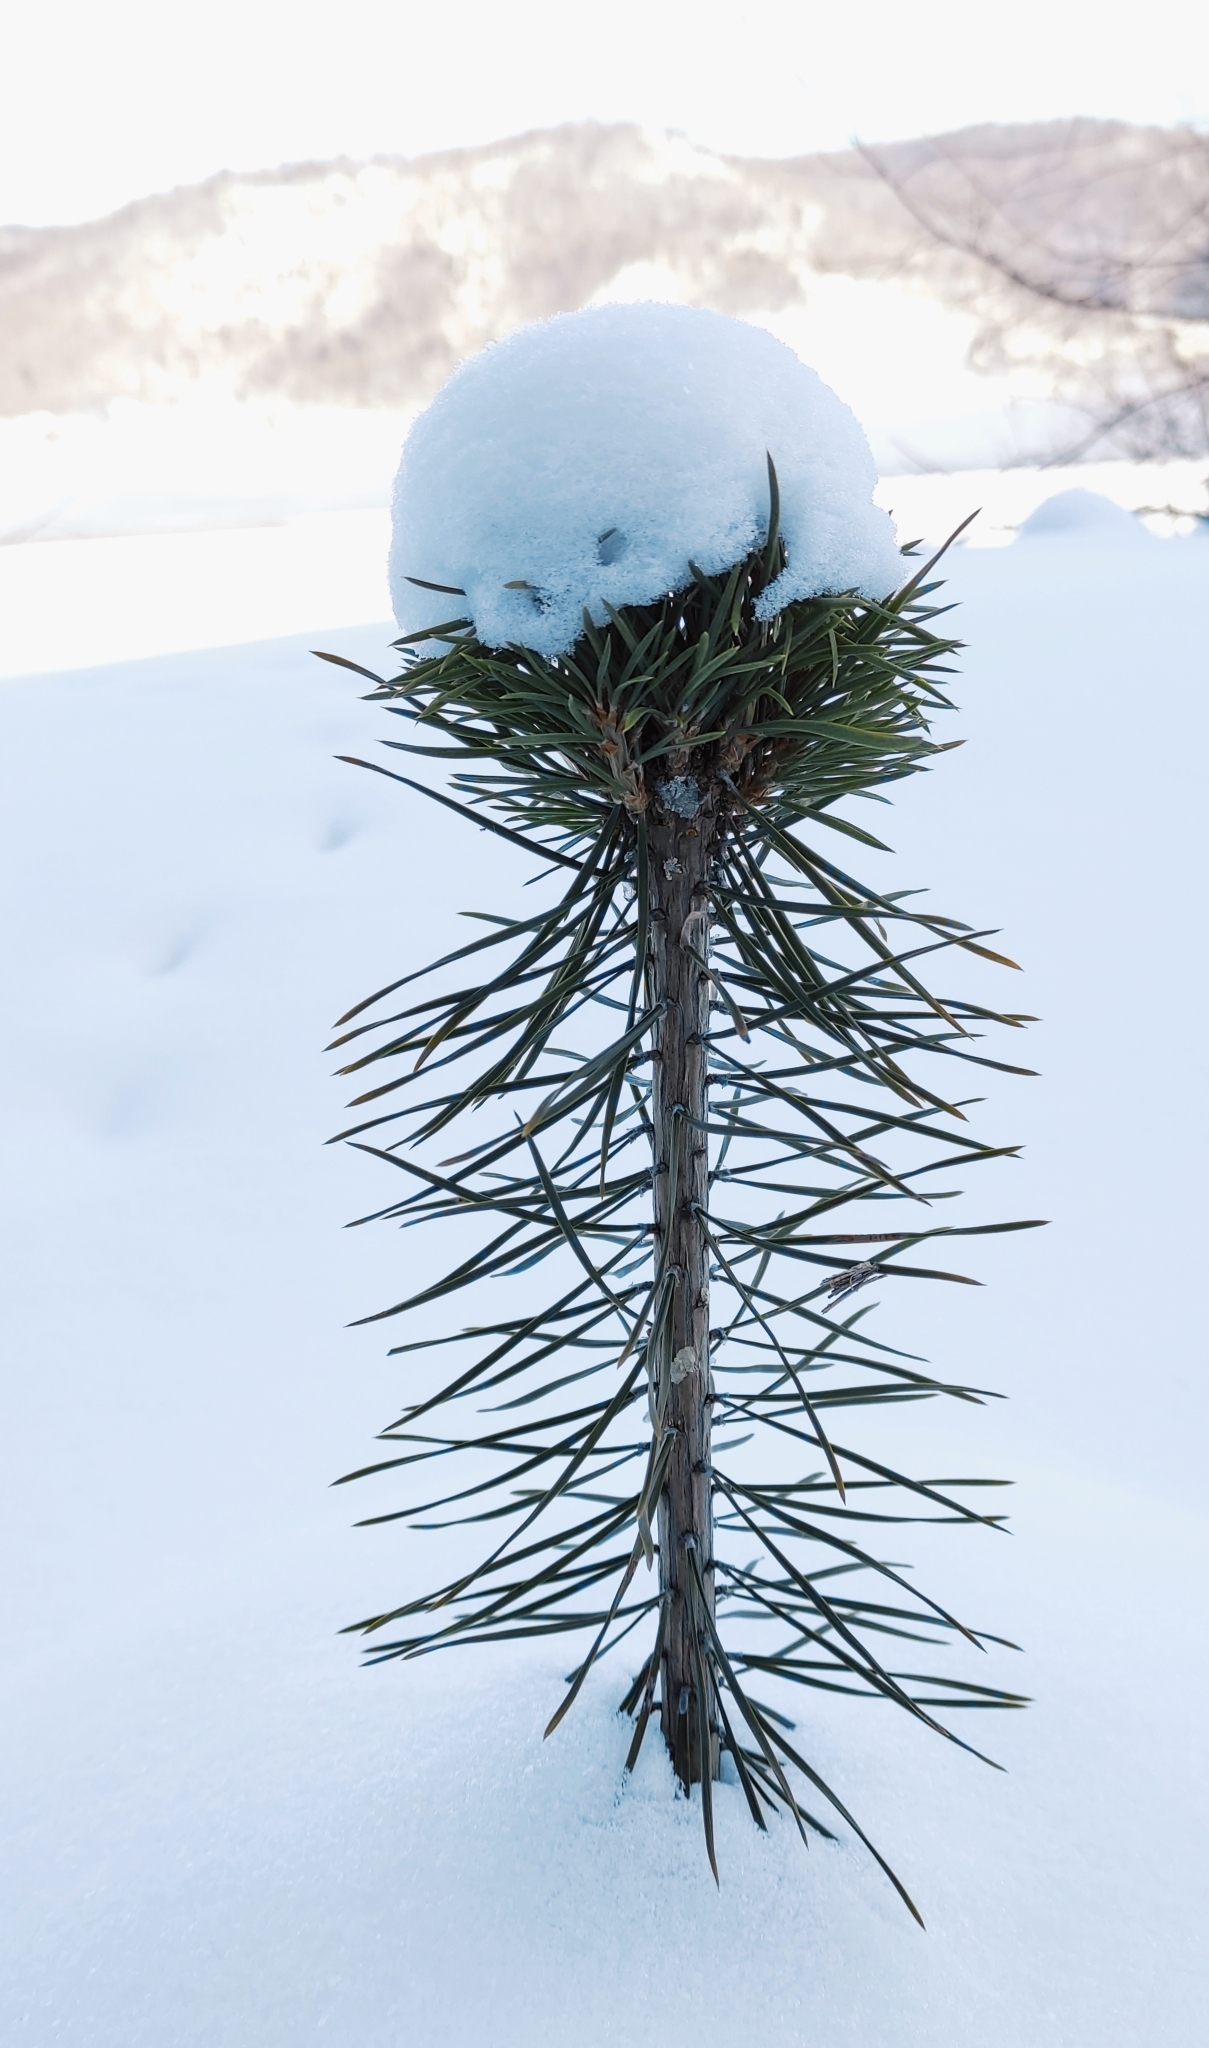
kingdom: Plantae
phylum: Tracheophyta
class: Pinopsida
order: Pinales
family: Pinaceae
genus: Pinus
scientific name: Pinus sylvestris
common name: Scots pine
